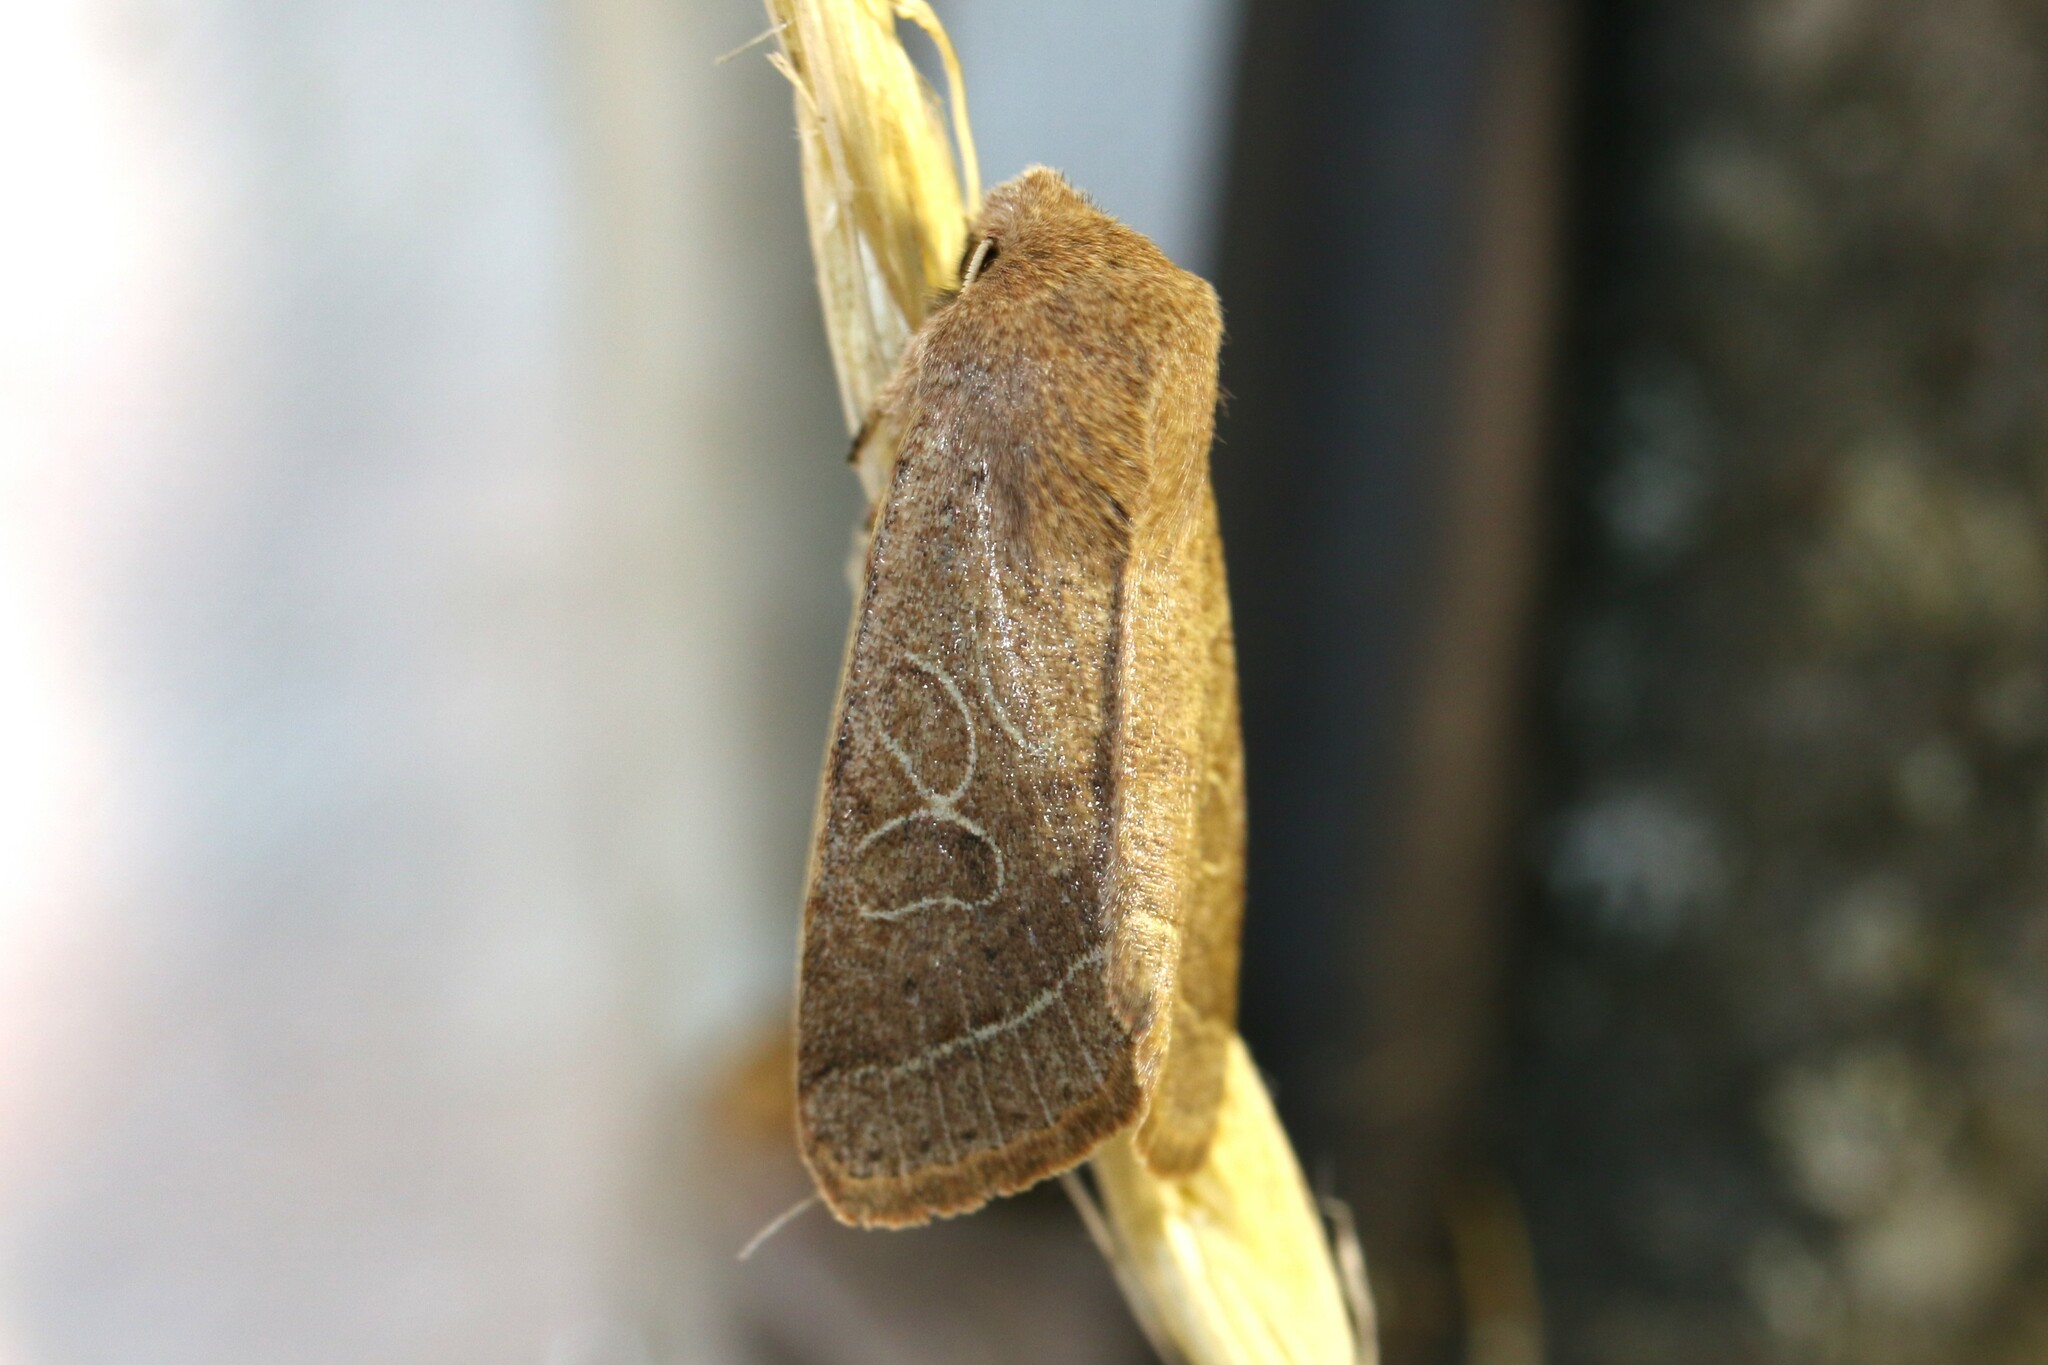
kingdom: Animalia
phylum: Arthropoda
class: Insecta
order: Lepidoptera
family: Noctuidae
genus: Orthosia
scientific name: Orthosia cerasi
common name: Common quaker
